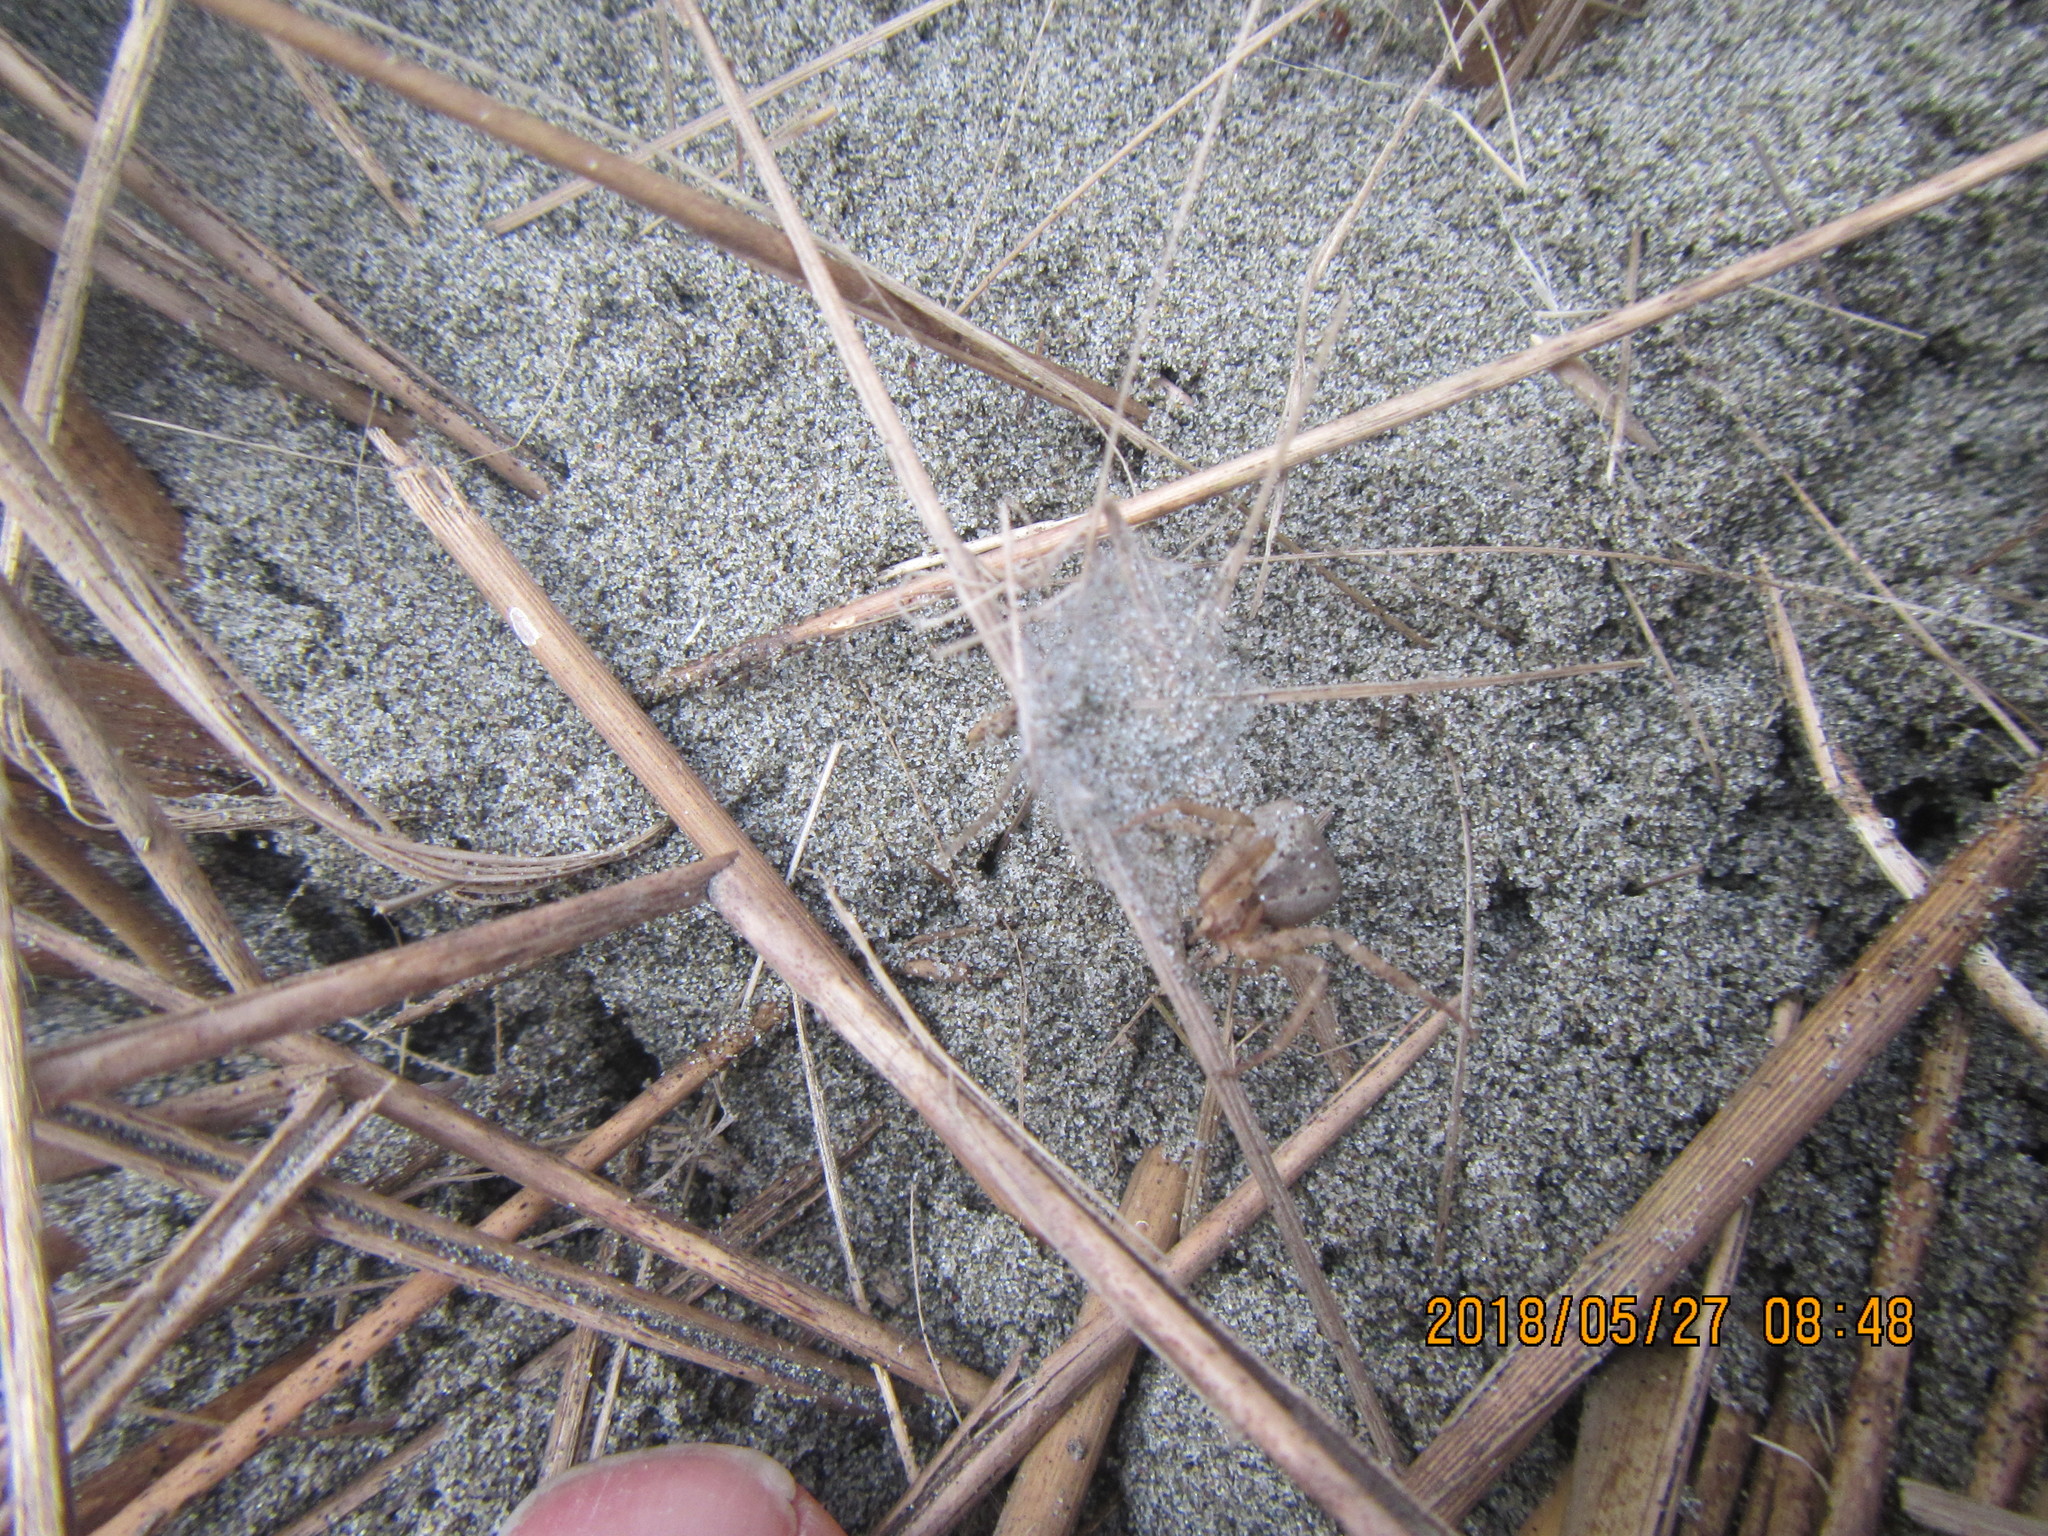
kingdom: Animalia
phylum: Arthropoda
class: Arachnida
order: Araneae
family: Thomisidae
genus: Sidymella
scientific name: Sidymella trapezia
